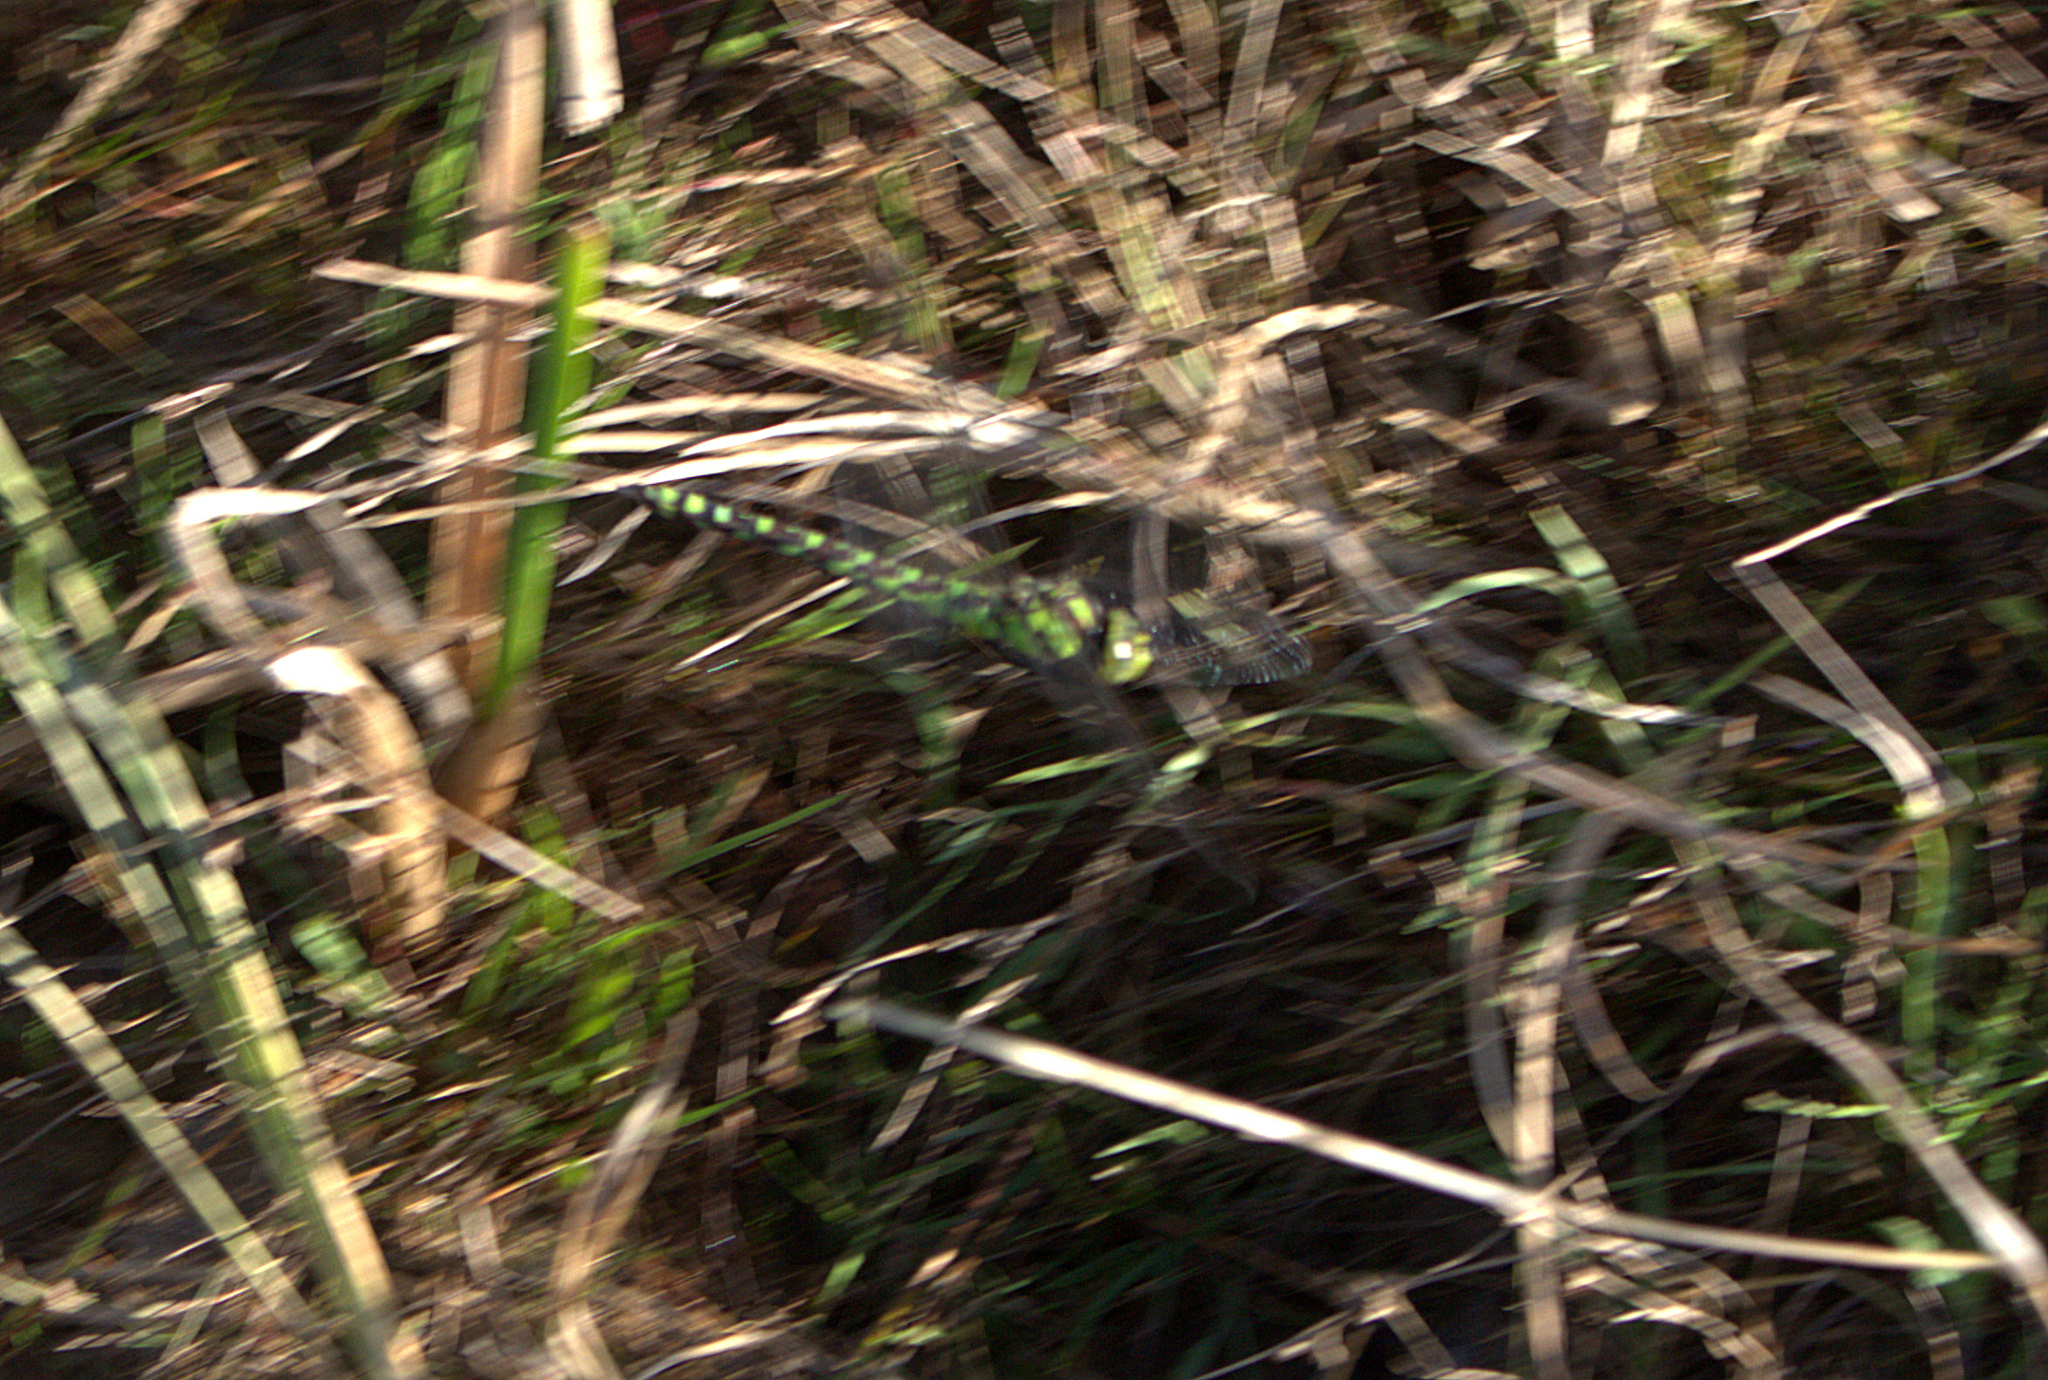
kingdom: Animalia
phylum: Arthropoda
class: Insecta
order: Odonata
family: Aeshnidae
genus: Aeshna
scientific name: Aeshna cyanea
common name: Southern hawker
